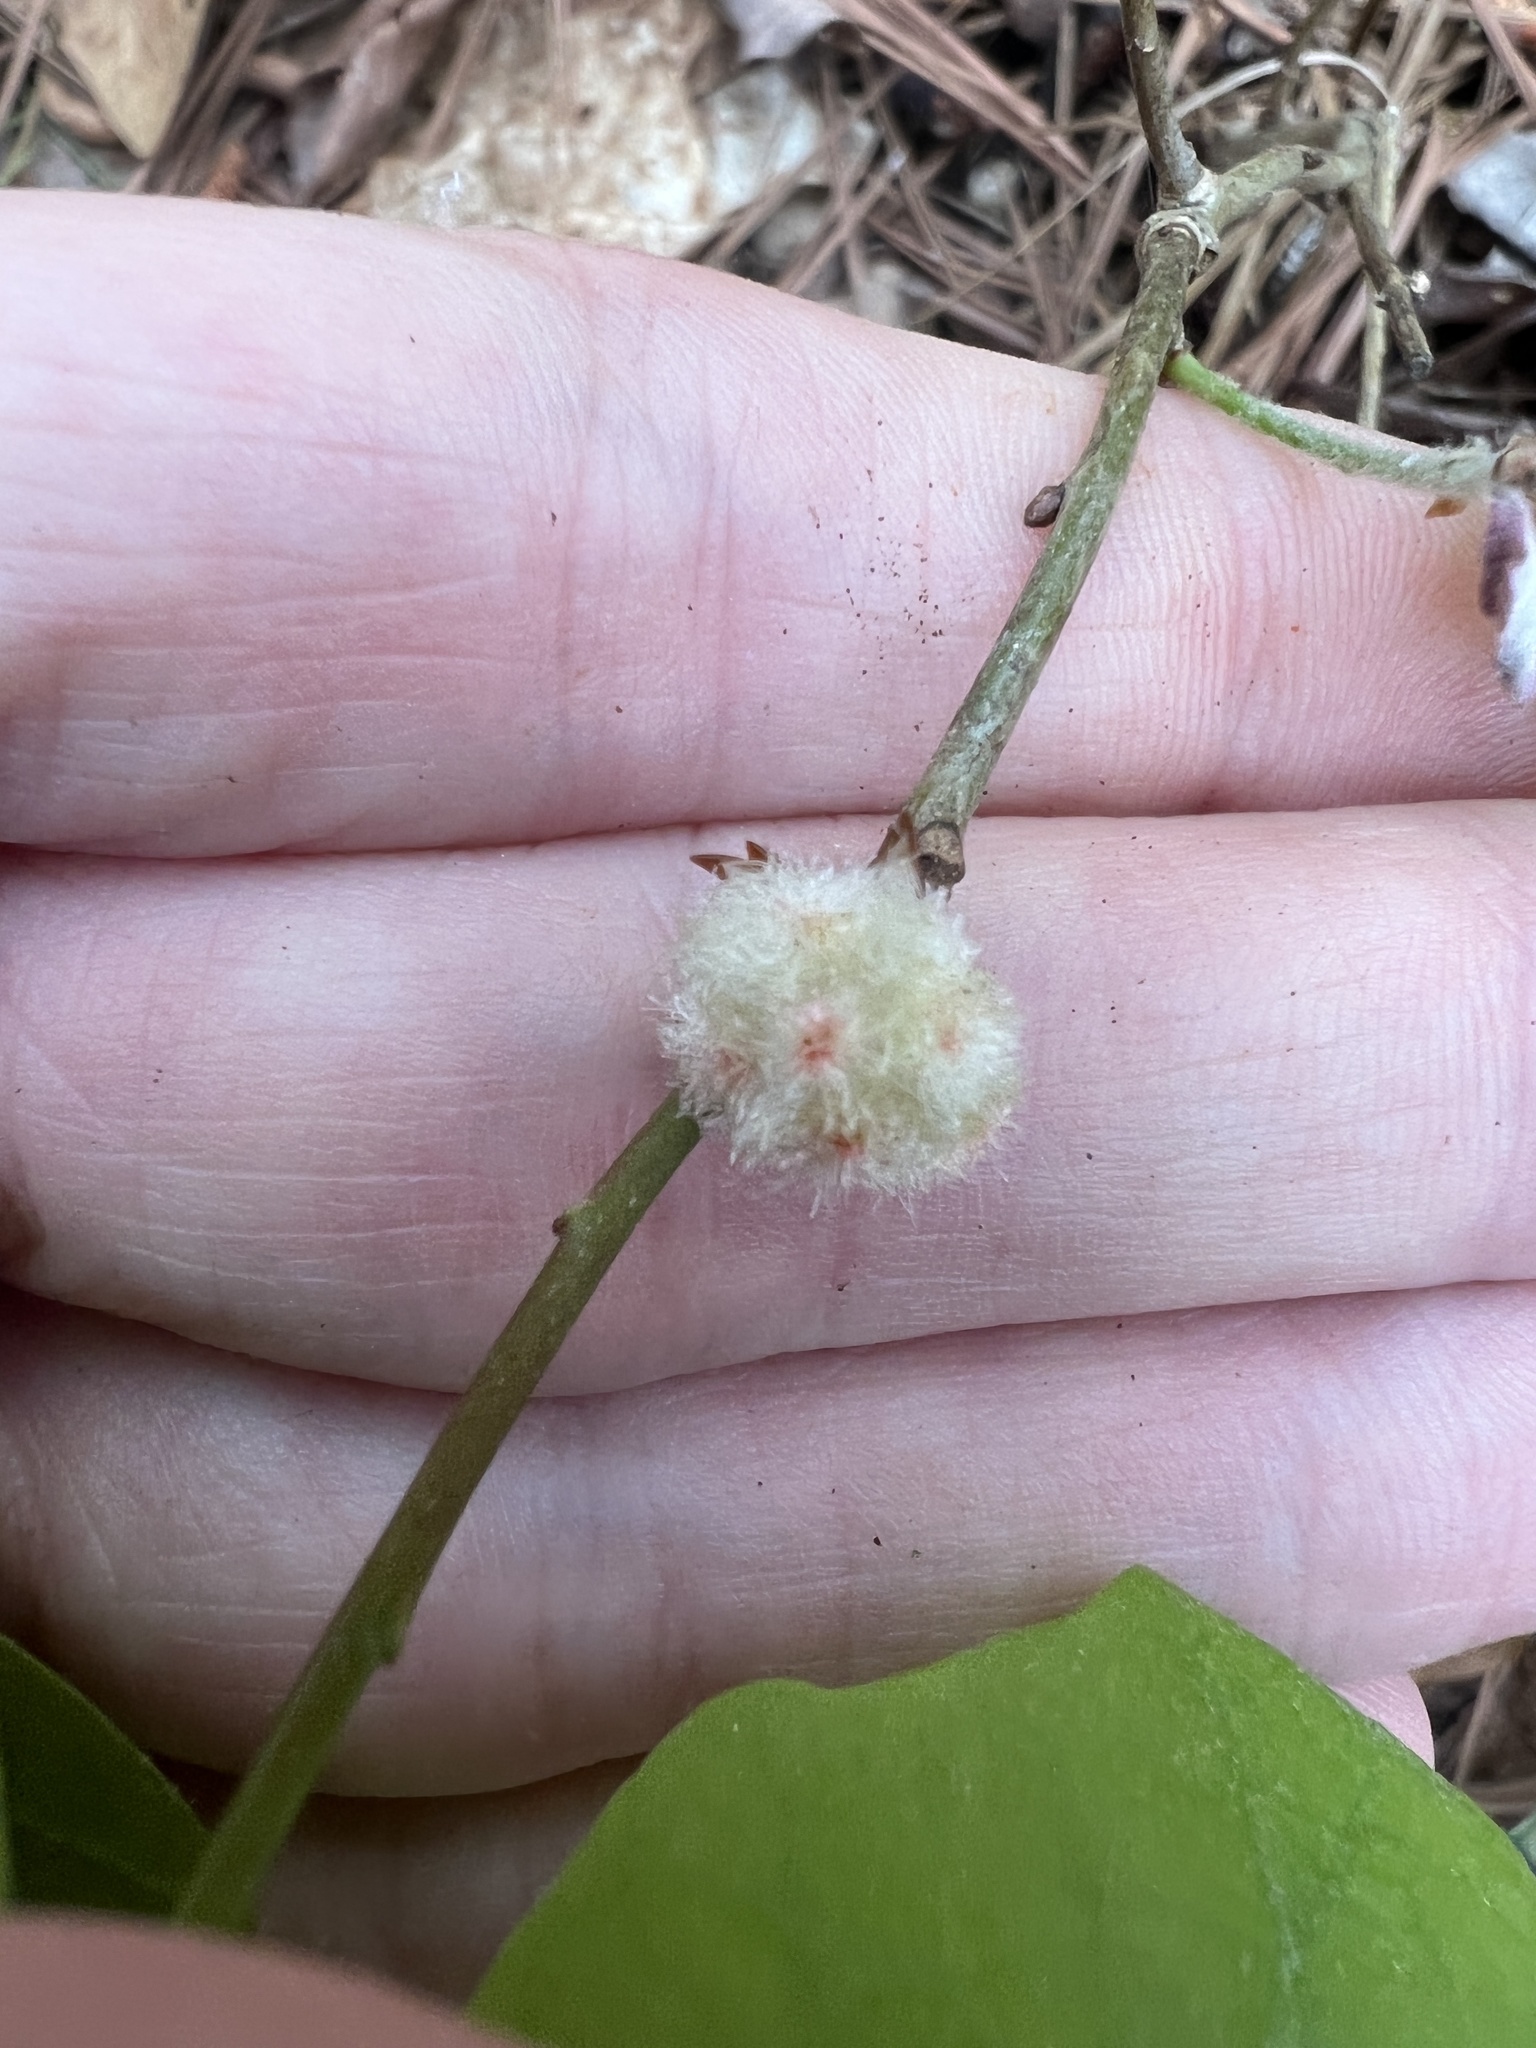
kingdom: Animalia
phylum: Arthropoda
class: Insecta
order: Hymenoptera
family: Cynipidae
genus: Callirhytis
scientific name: Callirhytis
